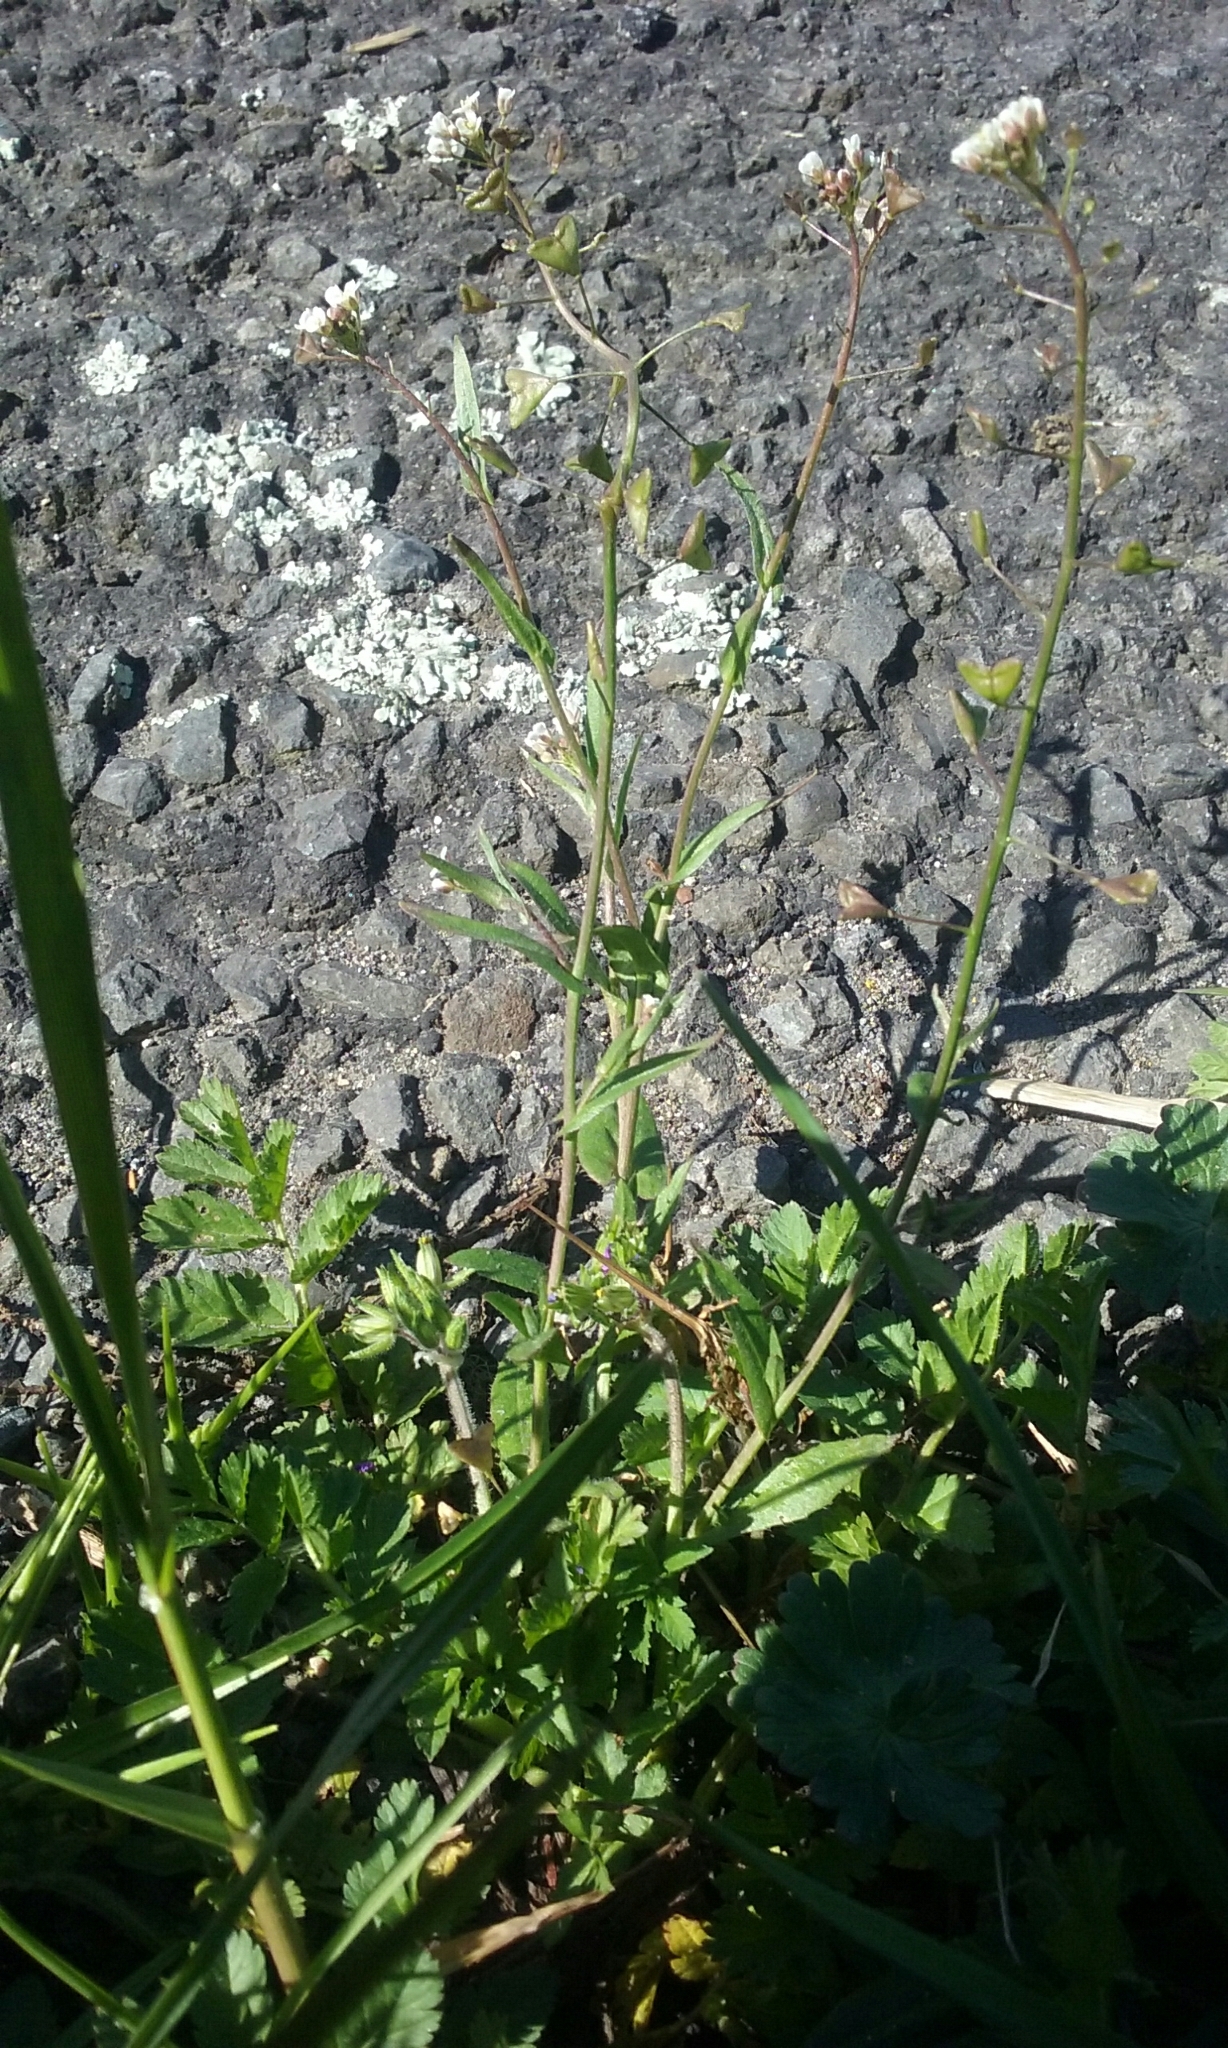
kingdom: Plantae
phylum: Tracheophyta
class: Magnoliopsida
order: Brassicales
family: Brassicaceae
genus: Capsella
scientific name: Capsella bursa-pastoris
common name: Shepherd's purse
